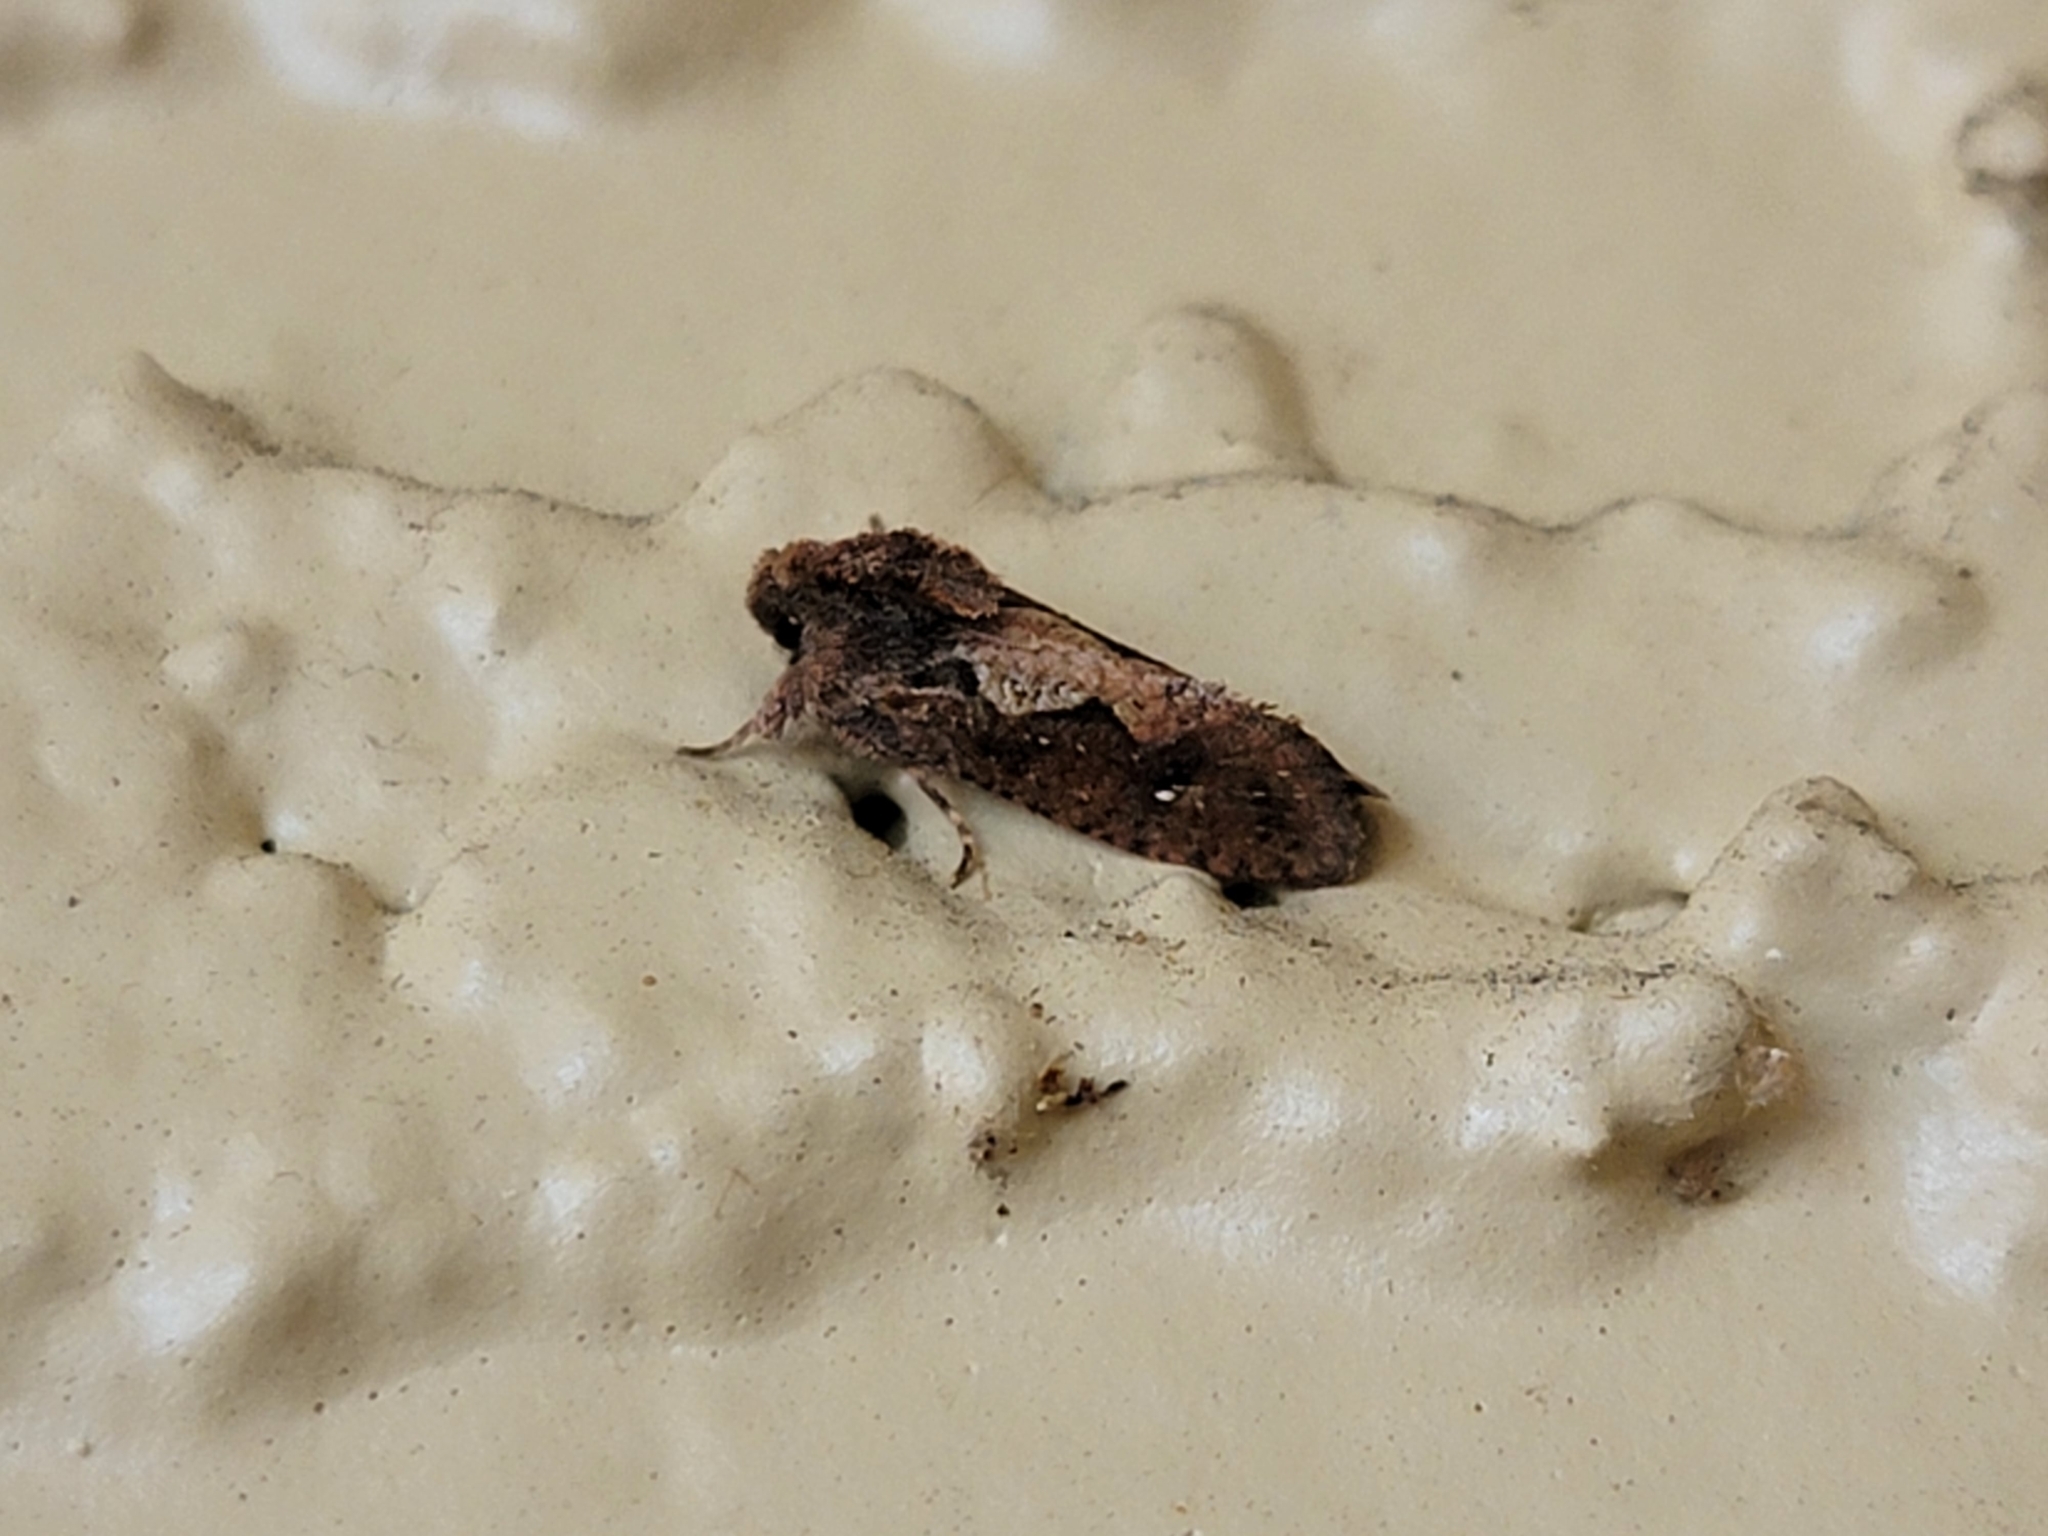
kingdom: Animalia
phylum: Arthropoda
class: Insecta
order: Lepidoptera
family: Tineidae
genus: Acrolophus
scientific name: Acrolophus walsinghami
